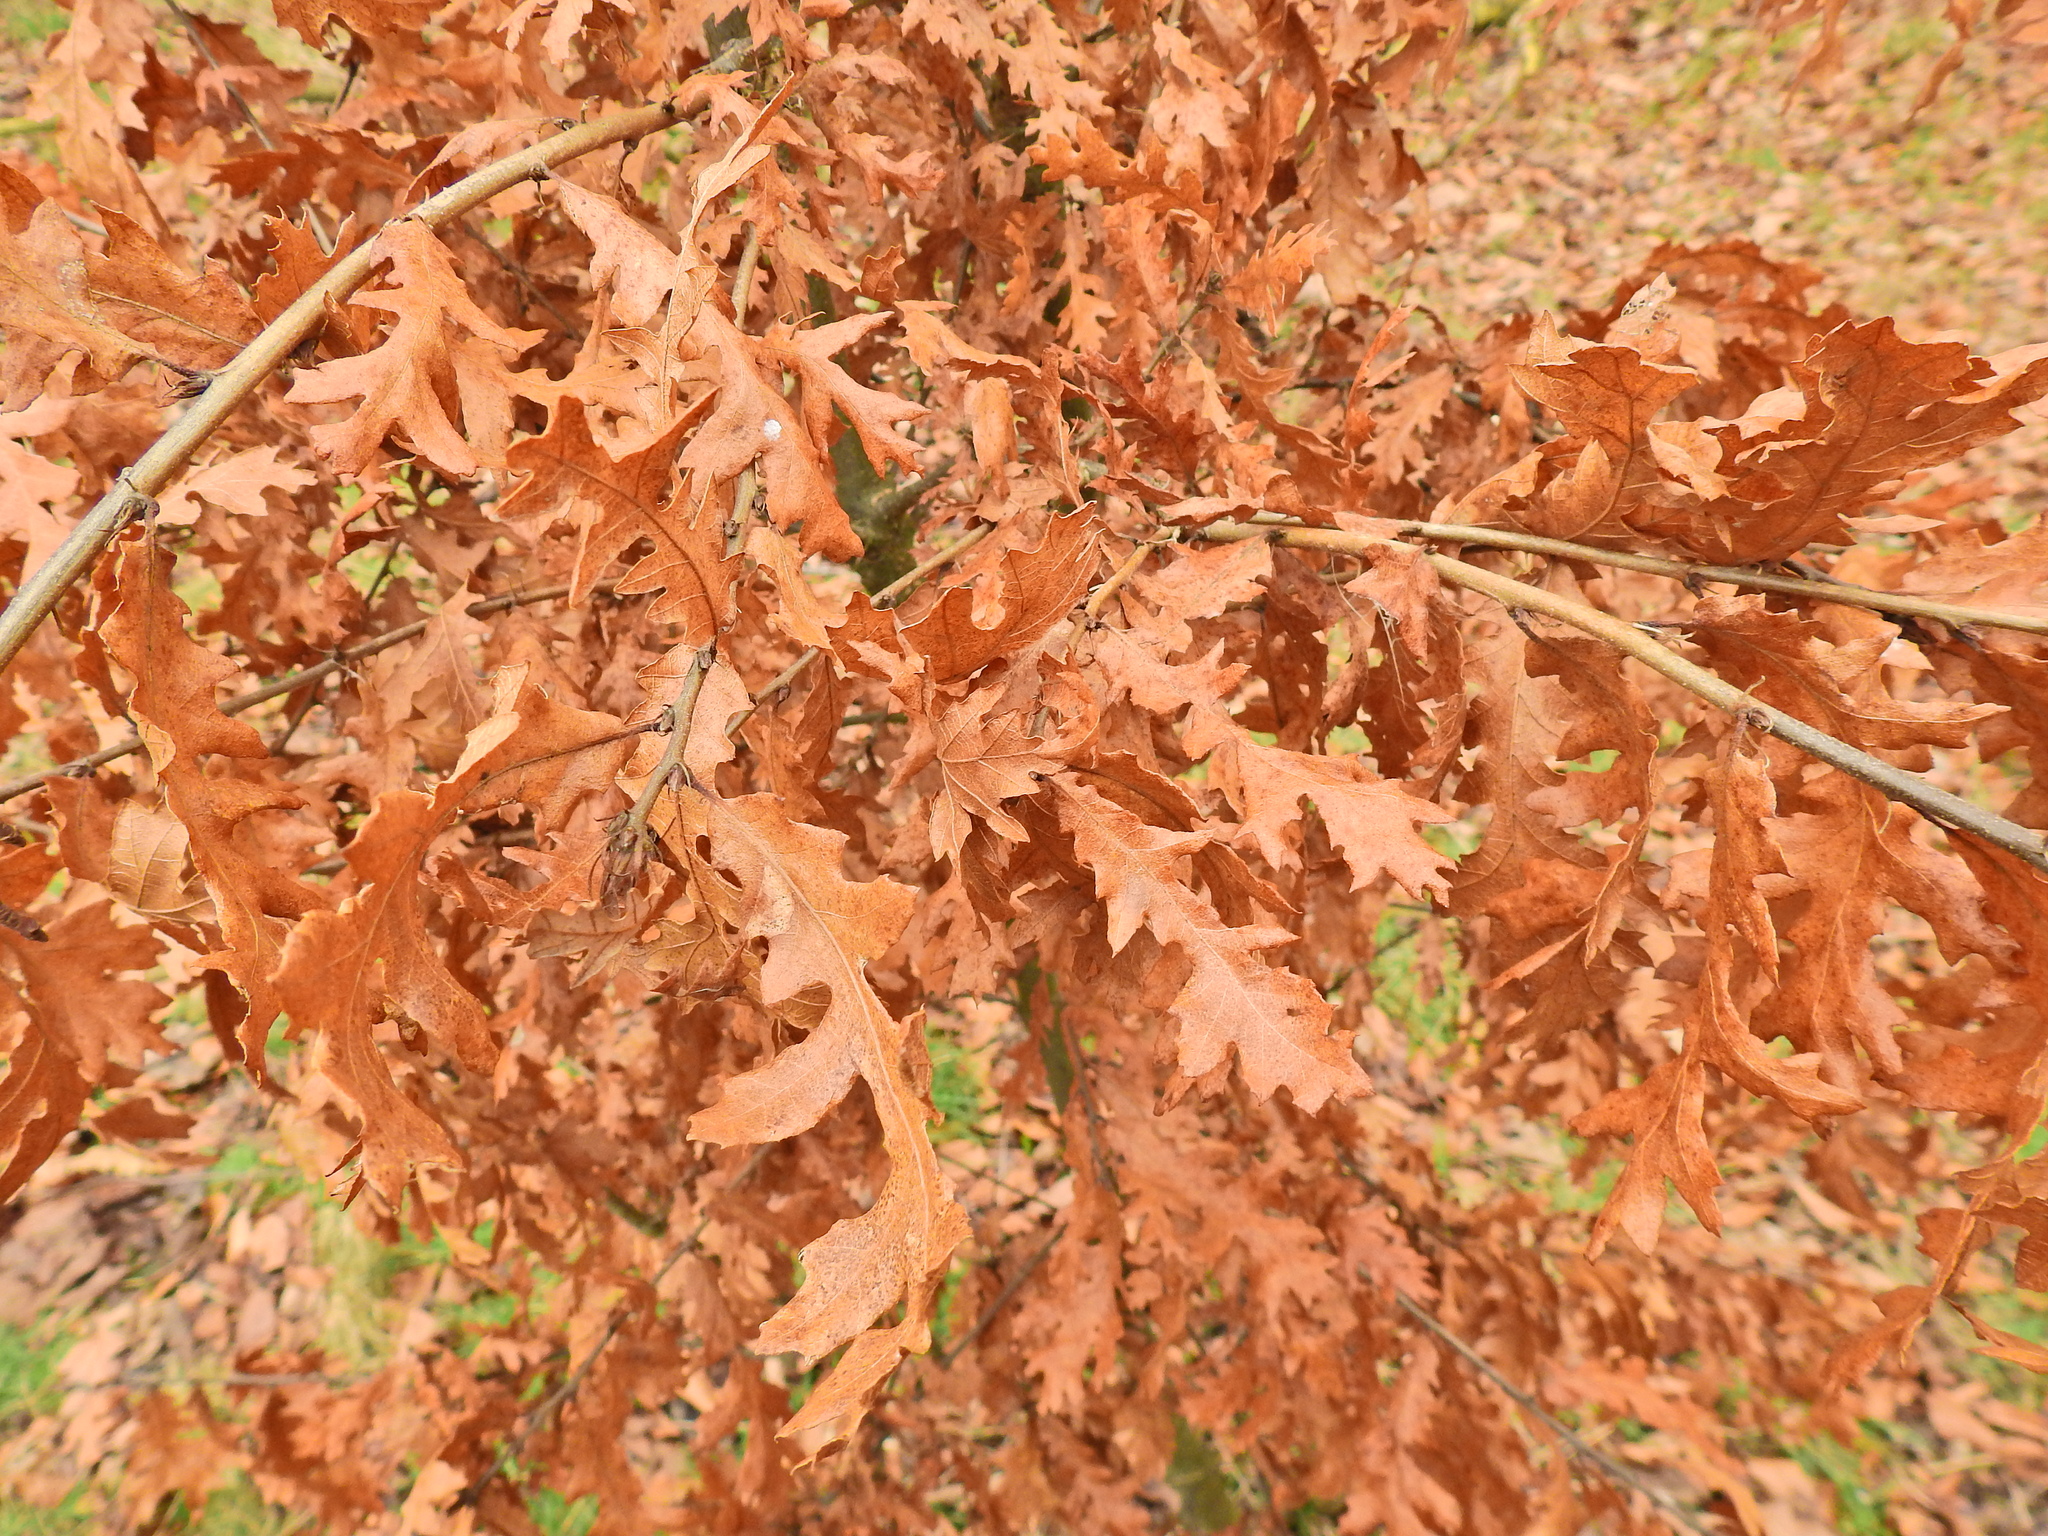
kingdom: Plantae
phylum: Tracheophyta
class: Magnoliopsida
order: Fagales
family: Fagaceae
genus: Quercus
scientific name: Quercus cerris
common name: Turkey oak
